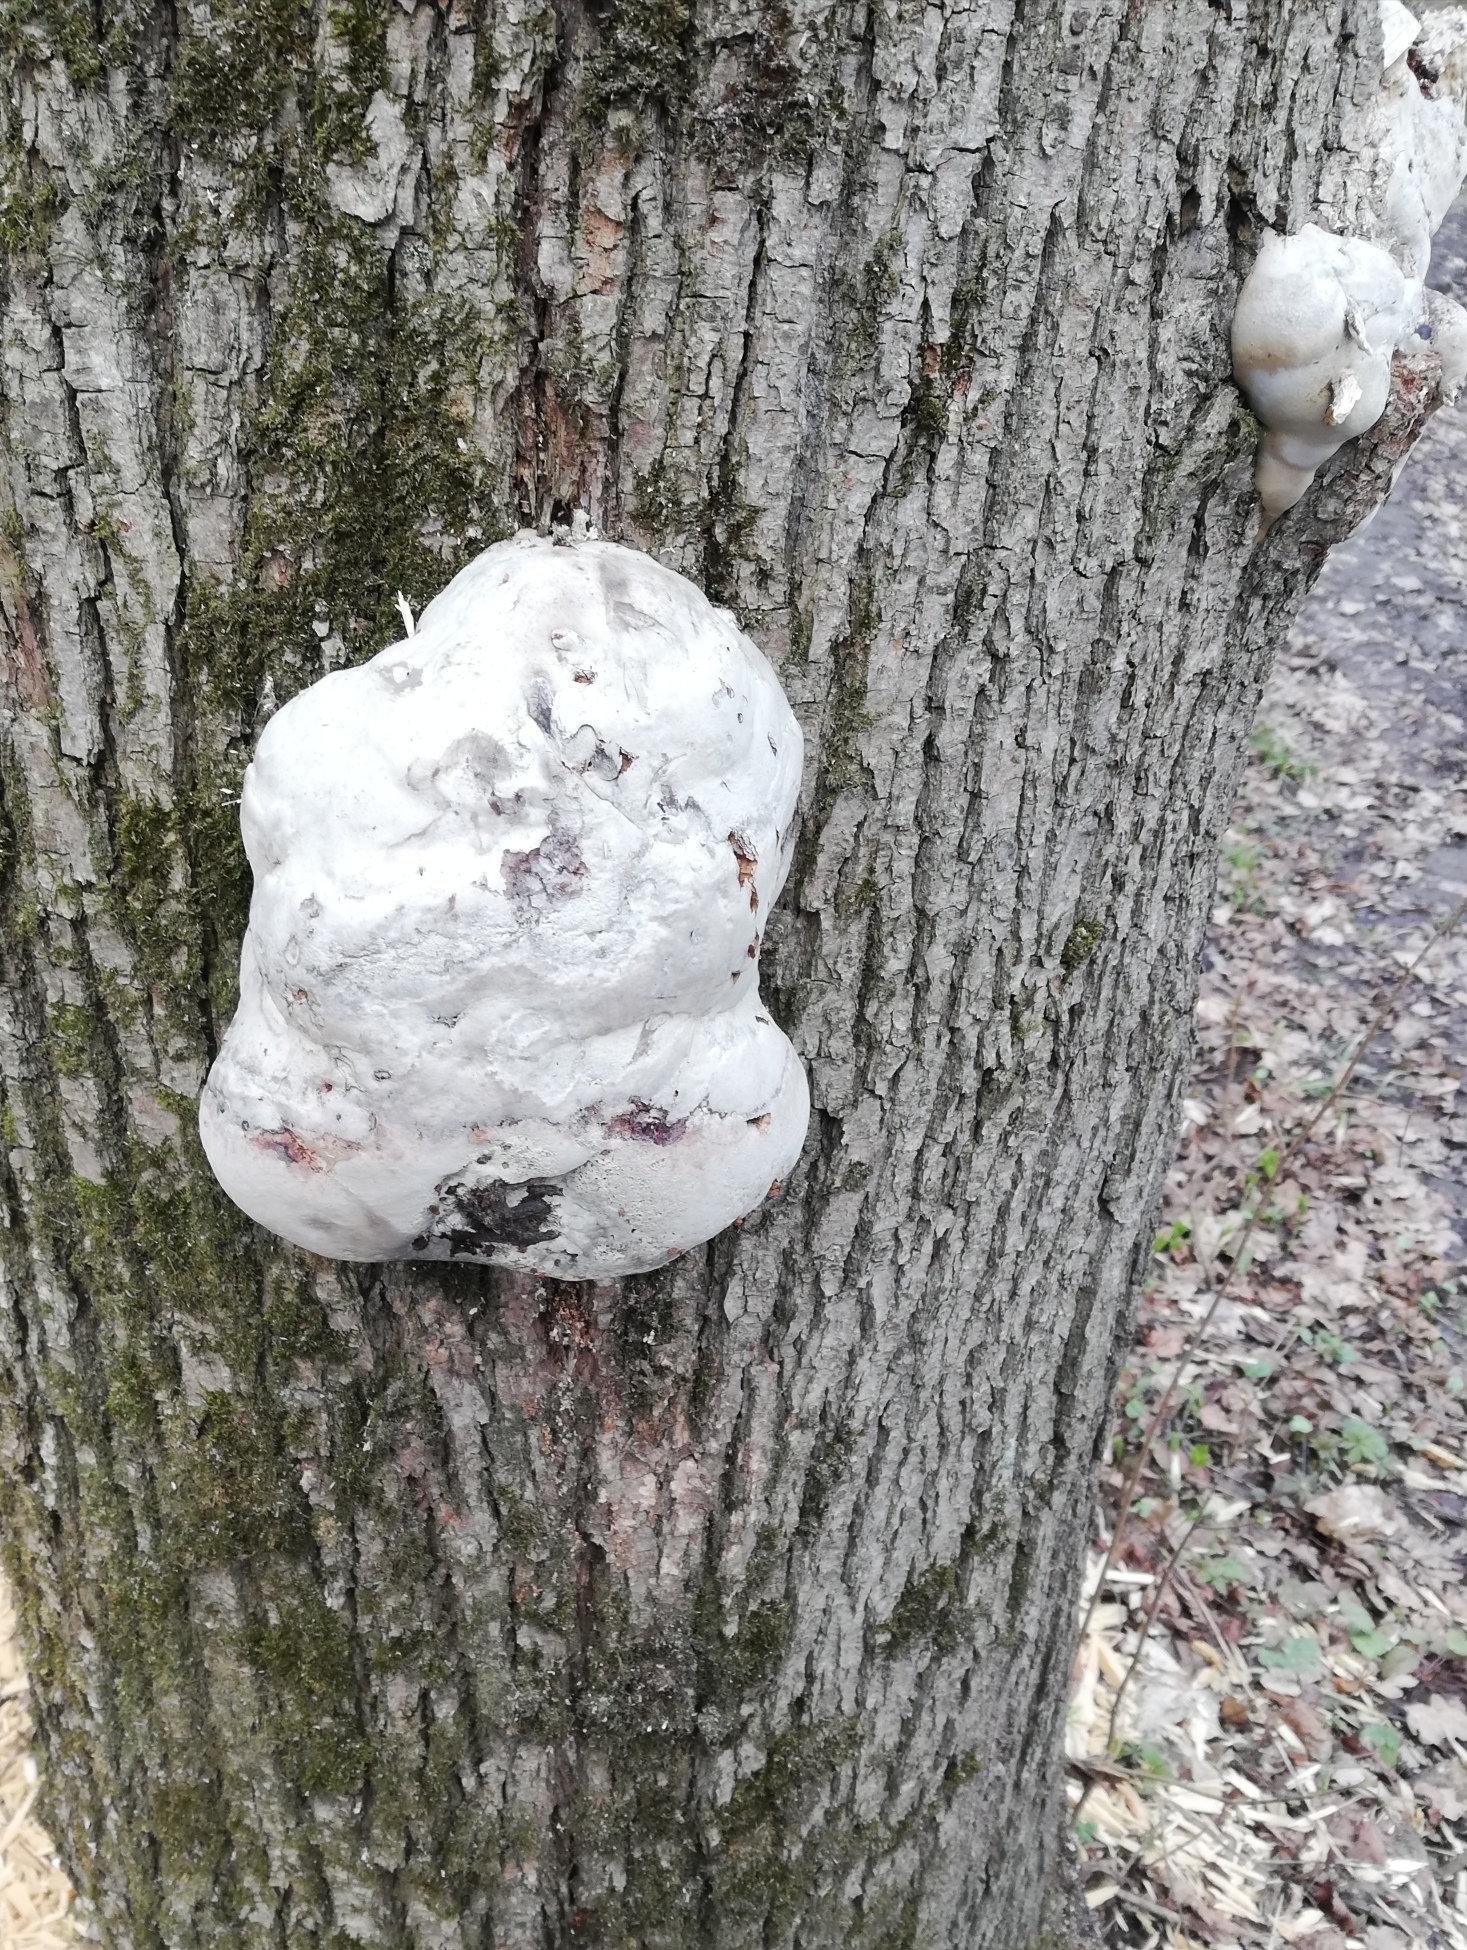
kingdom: Fungi
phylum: Basidiomycota
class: Agaricomycetes
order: Polyporales
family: Polyporaceae
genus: Fomes
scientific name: Fomes fomentarius
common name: Hoof fungus
